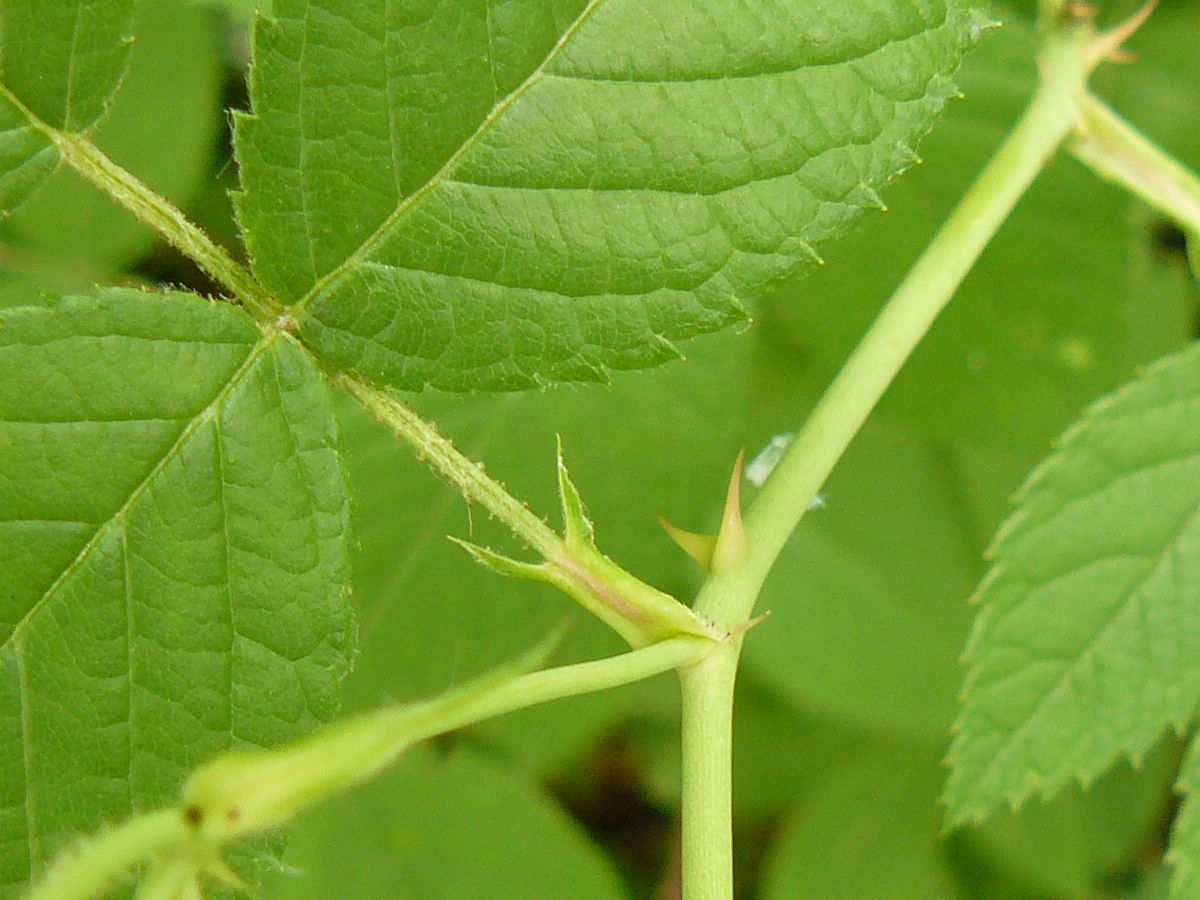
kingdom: Plantae
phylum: Tracheophyta
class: Magnoliopsida
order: Rosales
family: Rosaceae
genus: Rosa
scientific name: Rosa setigera
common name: Prairie rose
